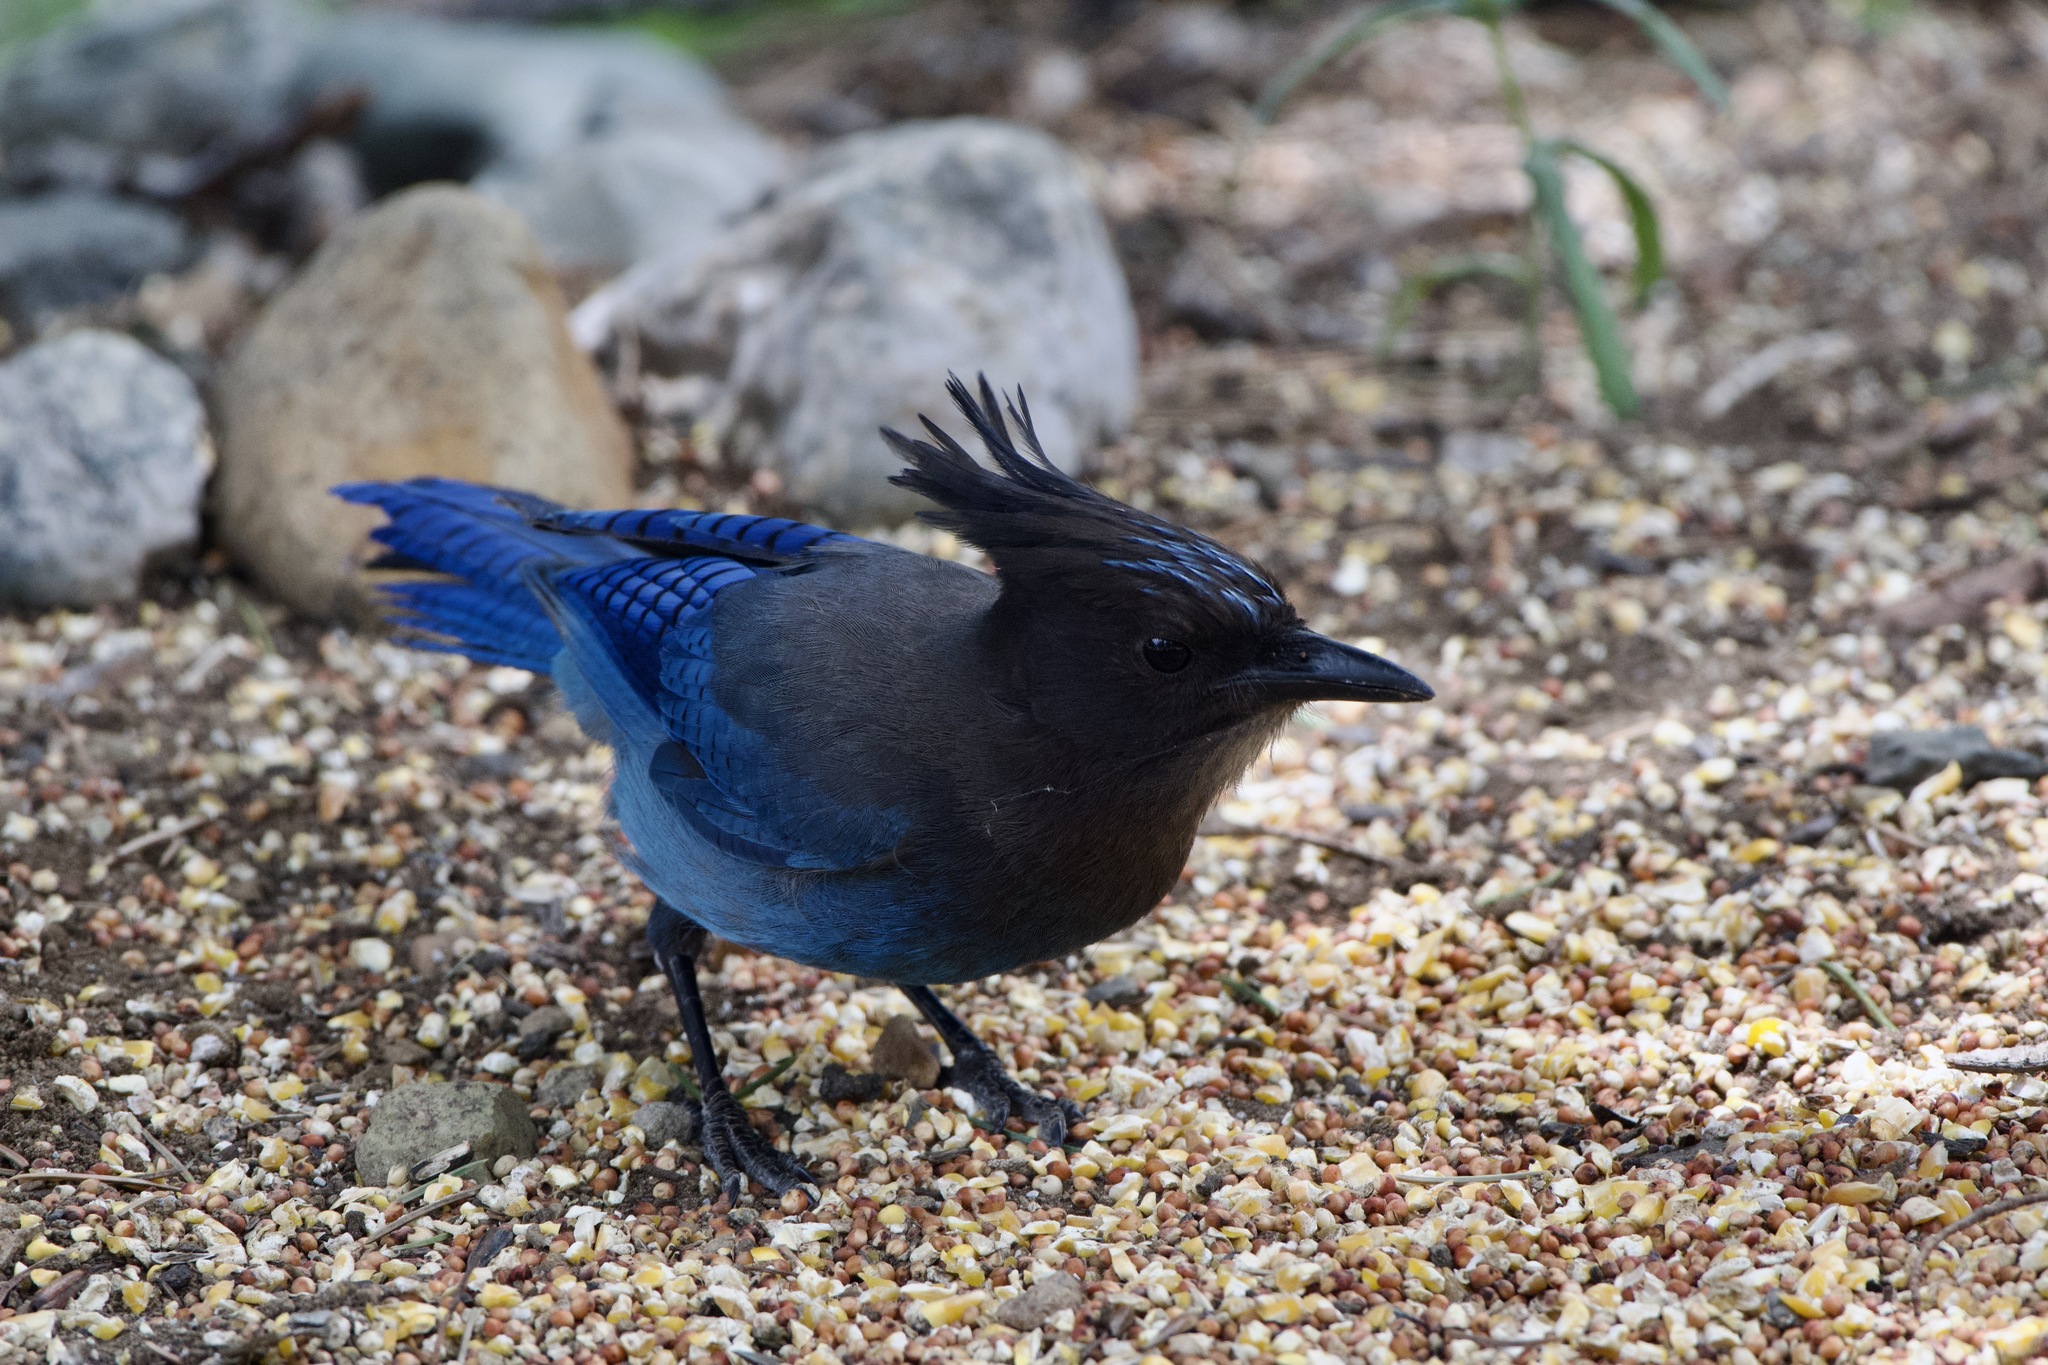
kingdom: Animalia
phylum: Chordata
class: Aves
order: Passeriformes
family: Corvidae
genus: Cyanocitta
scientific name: Cyanocitta stelleri
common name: Steller's jay
